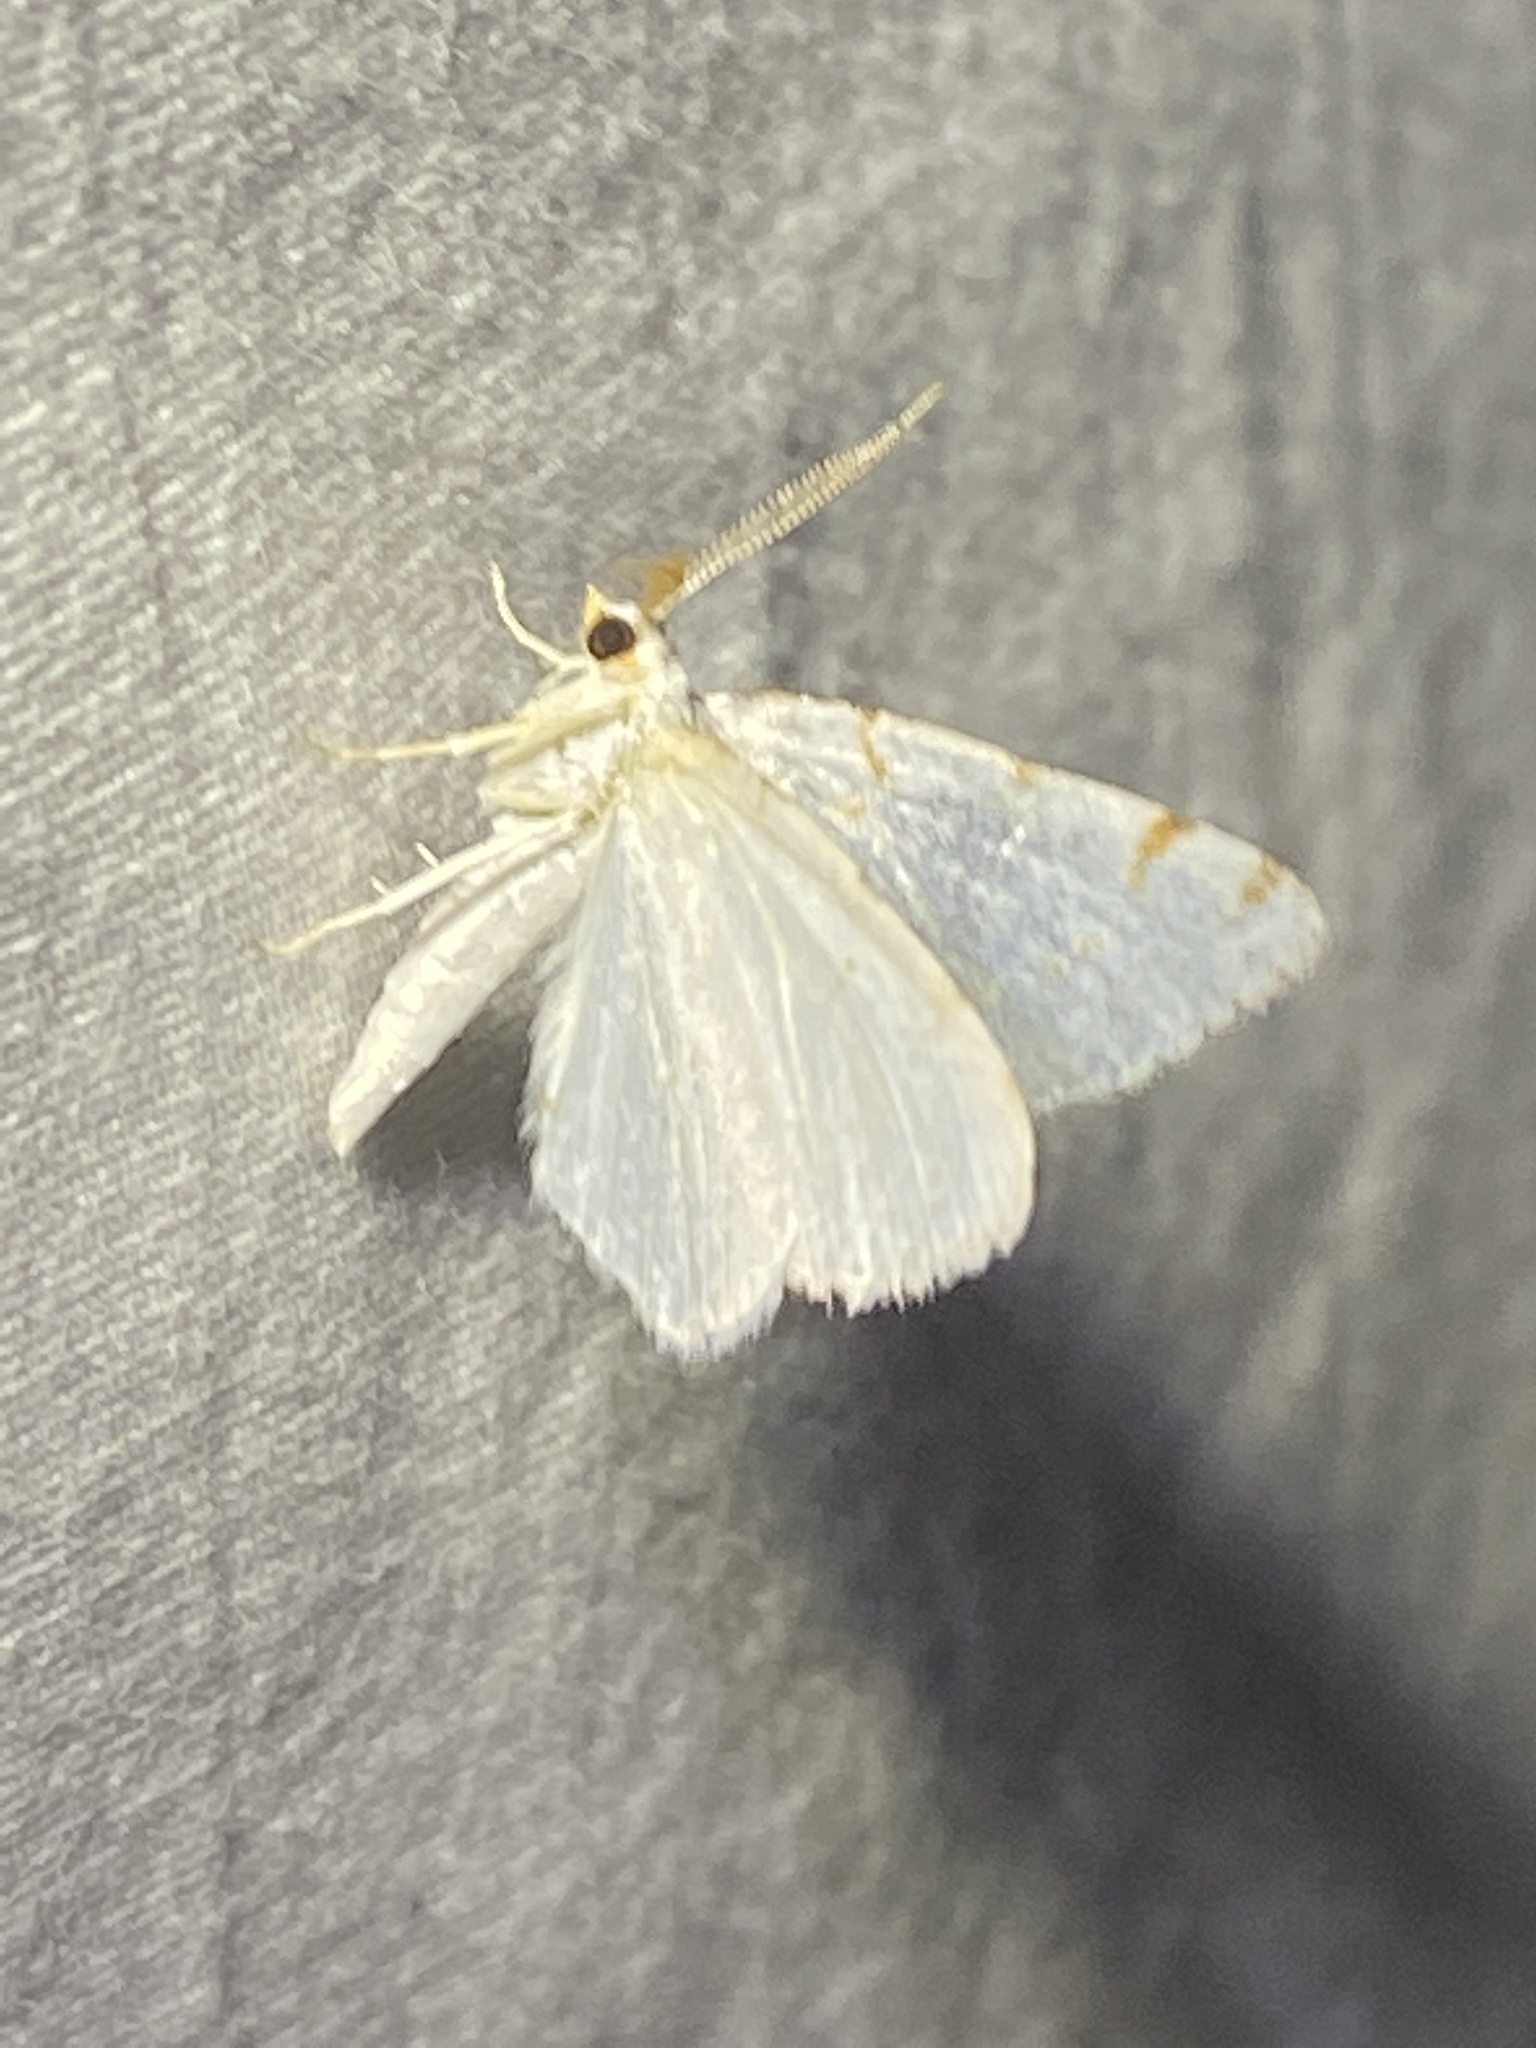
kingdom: Animalia
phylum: Arthropoda
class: Insecta
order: Lepidoptera
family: Geometridae
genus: Macaria
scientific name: Macaria pustularia
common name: Lesser maple spanworm moth
